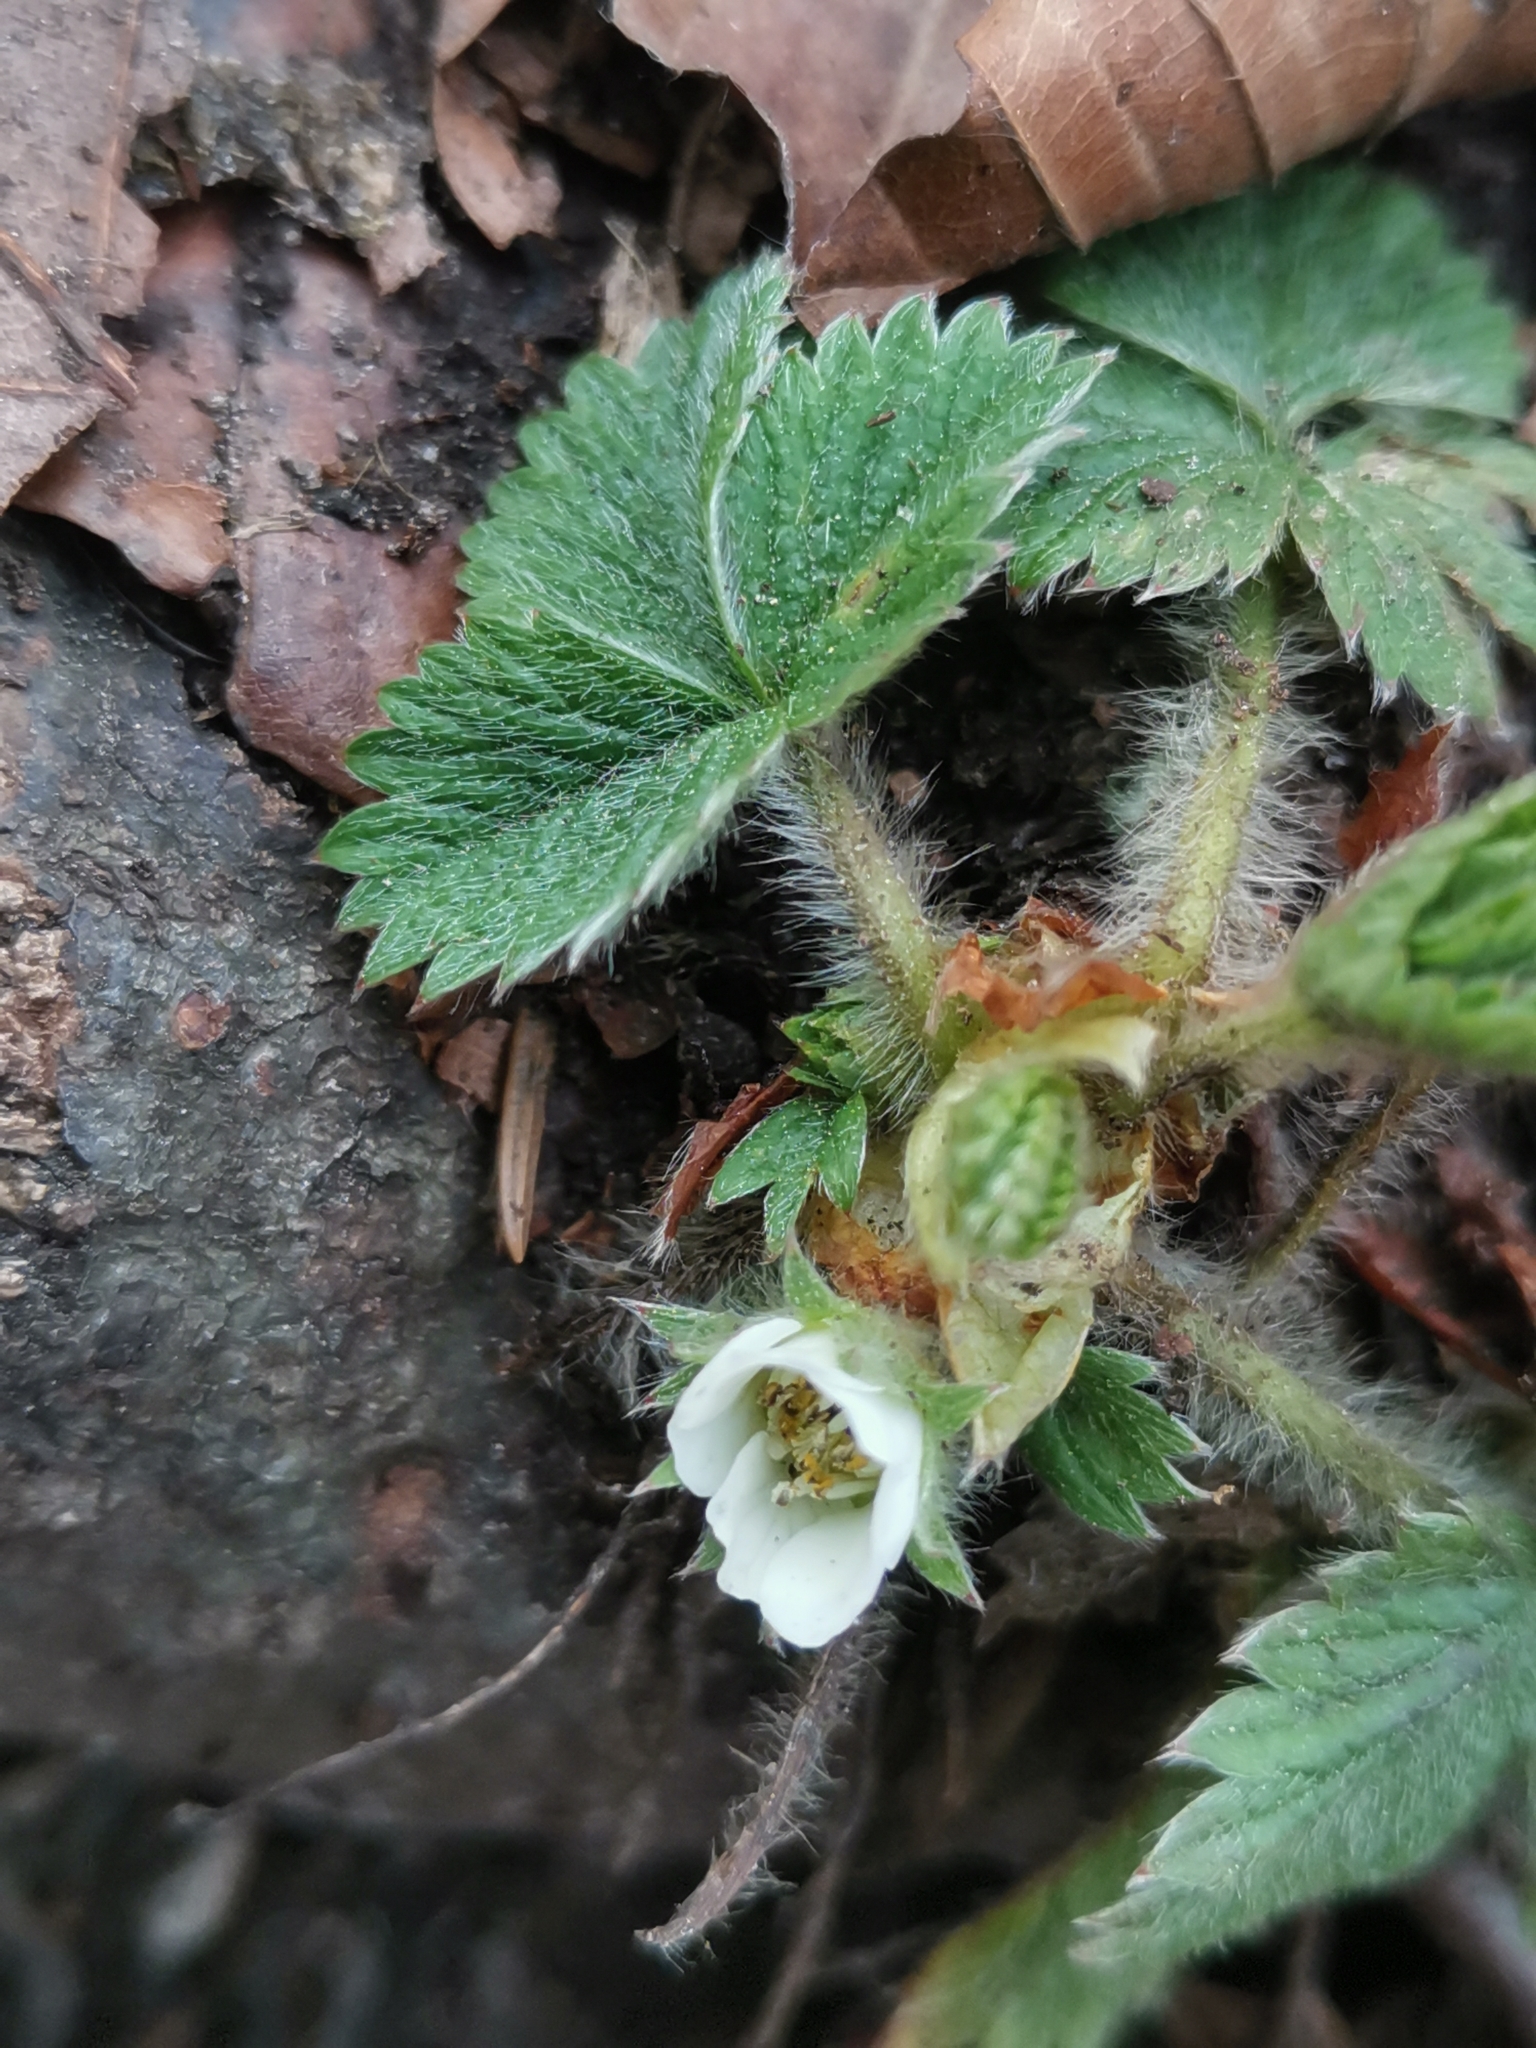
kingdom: Plantae
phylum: Tracheophyta
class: Magnoliopsida
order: Rosales
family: Rosaceae
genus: Potentilla
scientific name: Potentilla carniolica
